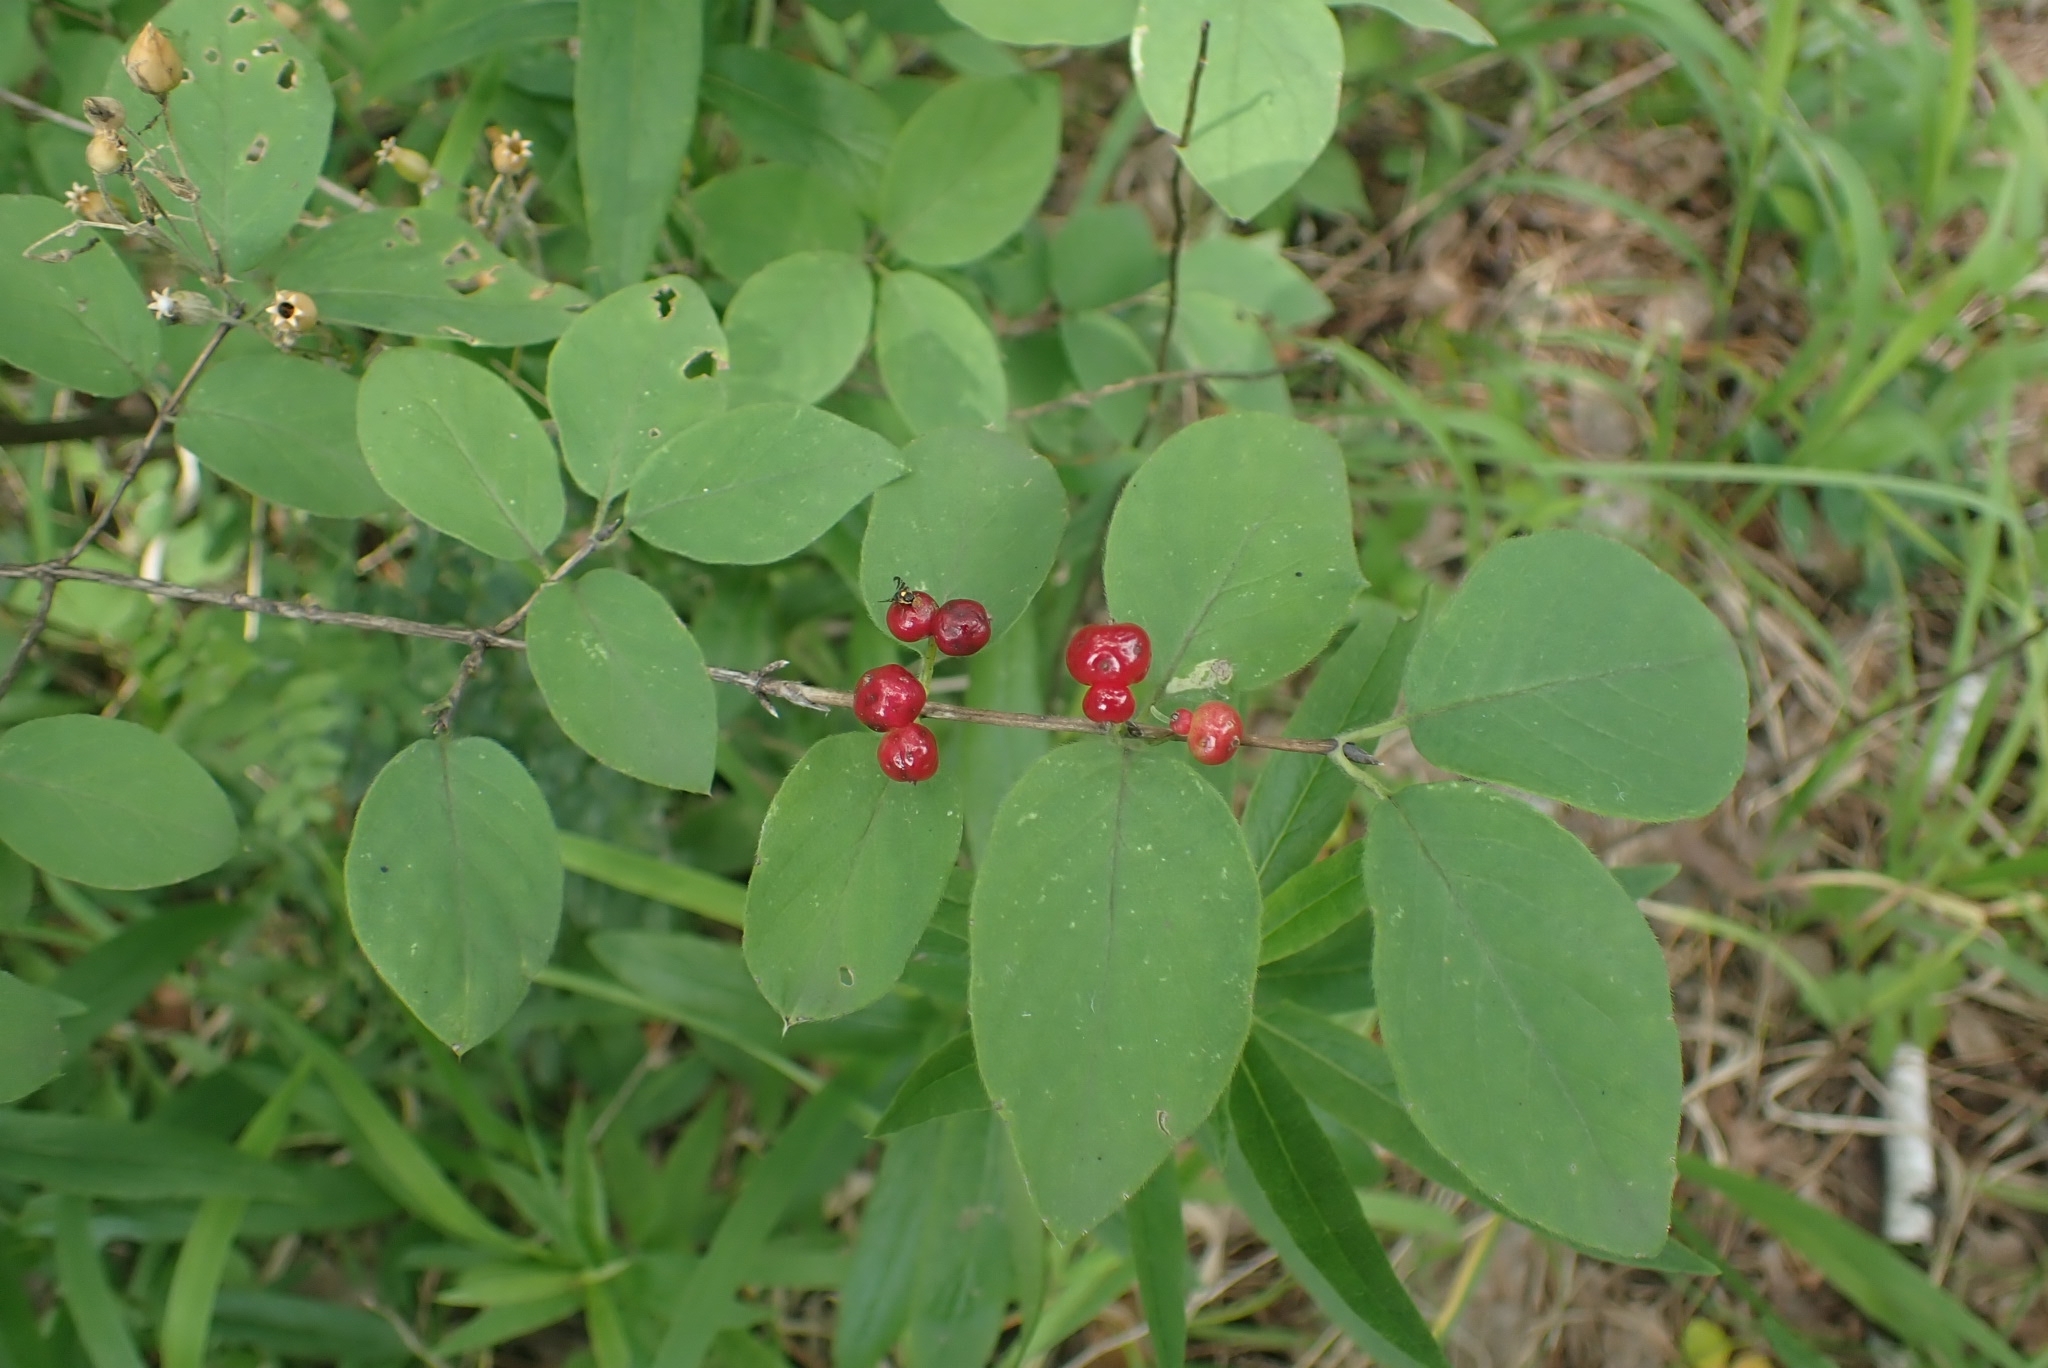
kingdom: Plantae
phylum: Tracheophyta
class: Magnoliopsida
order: Dipsacales
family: Caprifoliaceae
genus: Lonicera
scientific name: Lonicera xylosteum
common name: Fly honeysuckle
